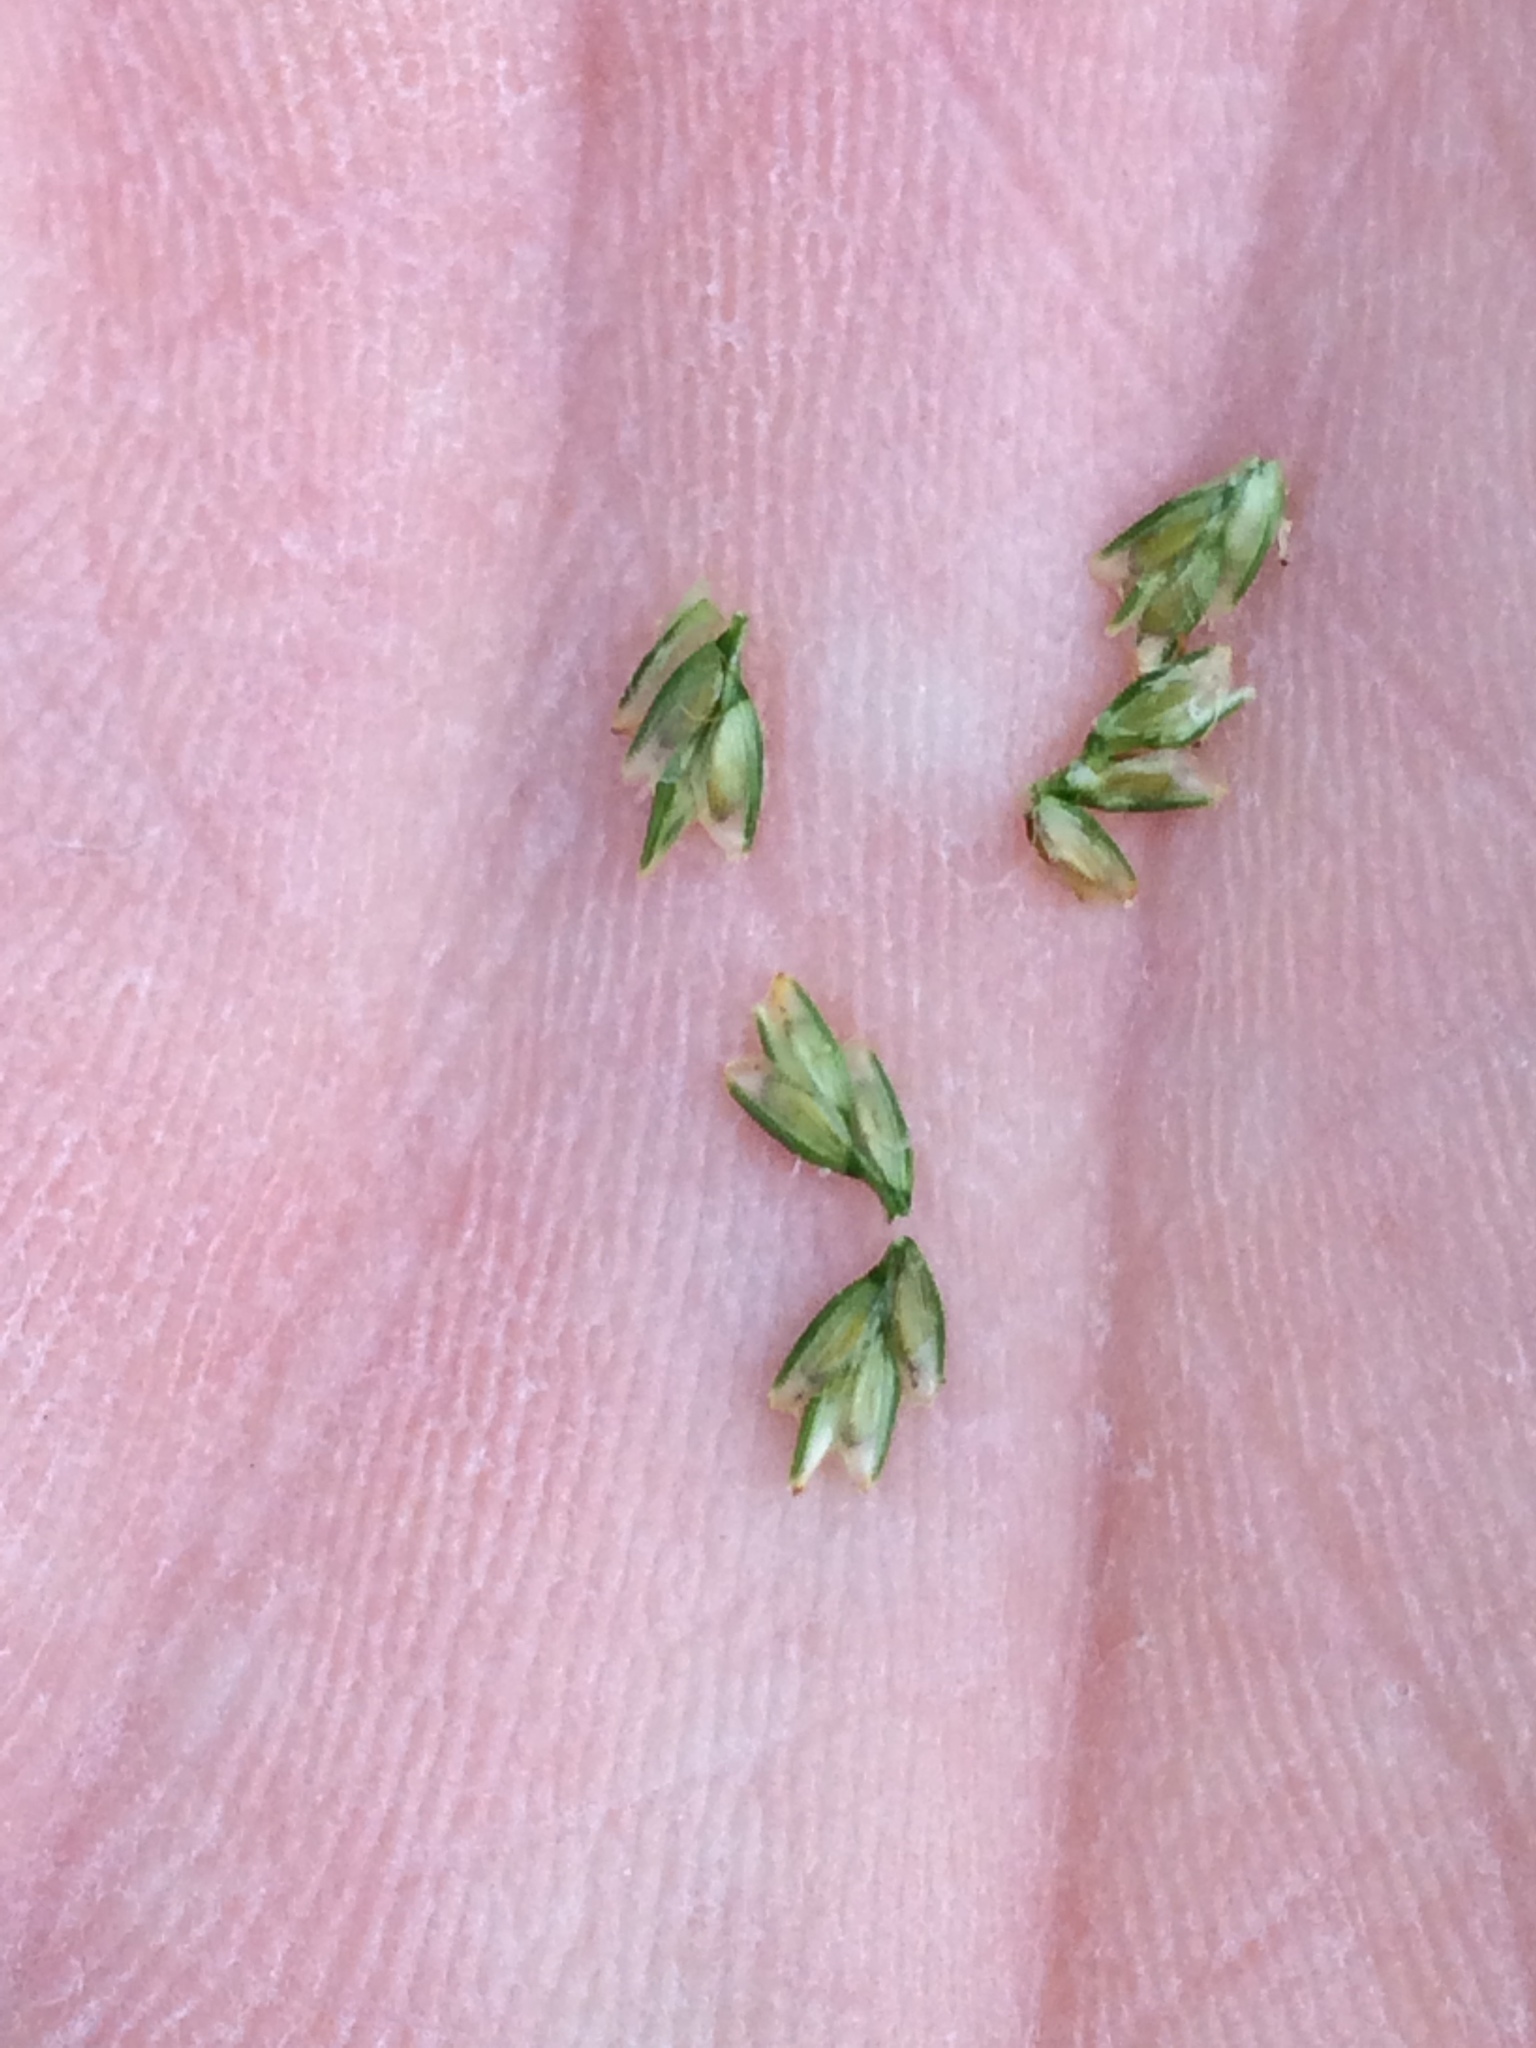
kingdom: Plantae
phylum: Tracheophyta
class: Liliopsida
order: Poales
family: Cyperaceae
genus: Cyperus
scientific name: Cyperus lupulinus
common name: Great plains flatsedge
